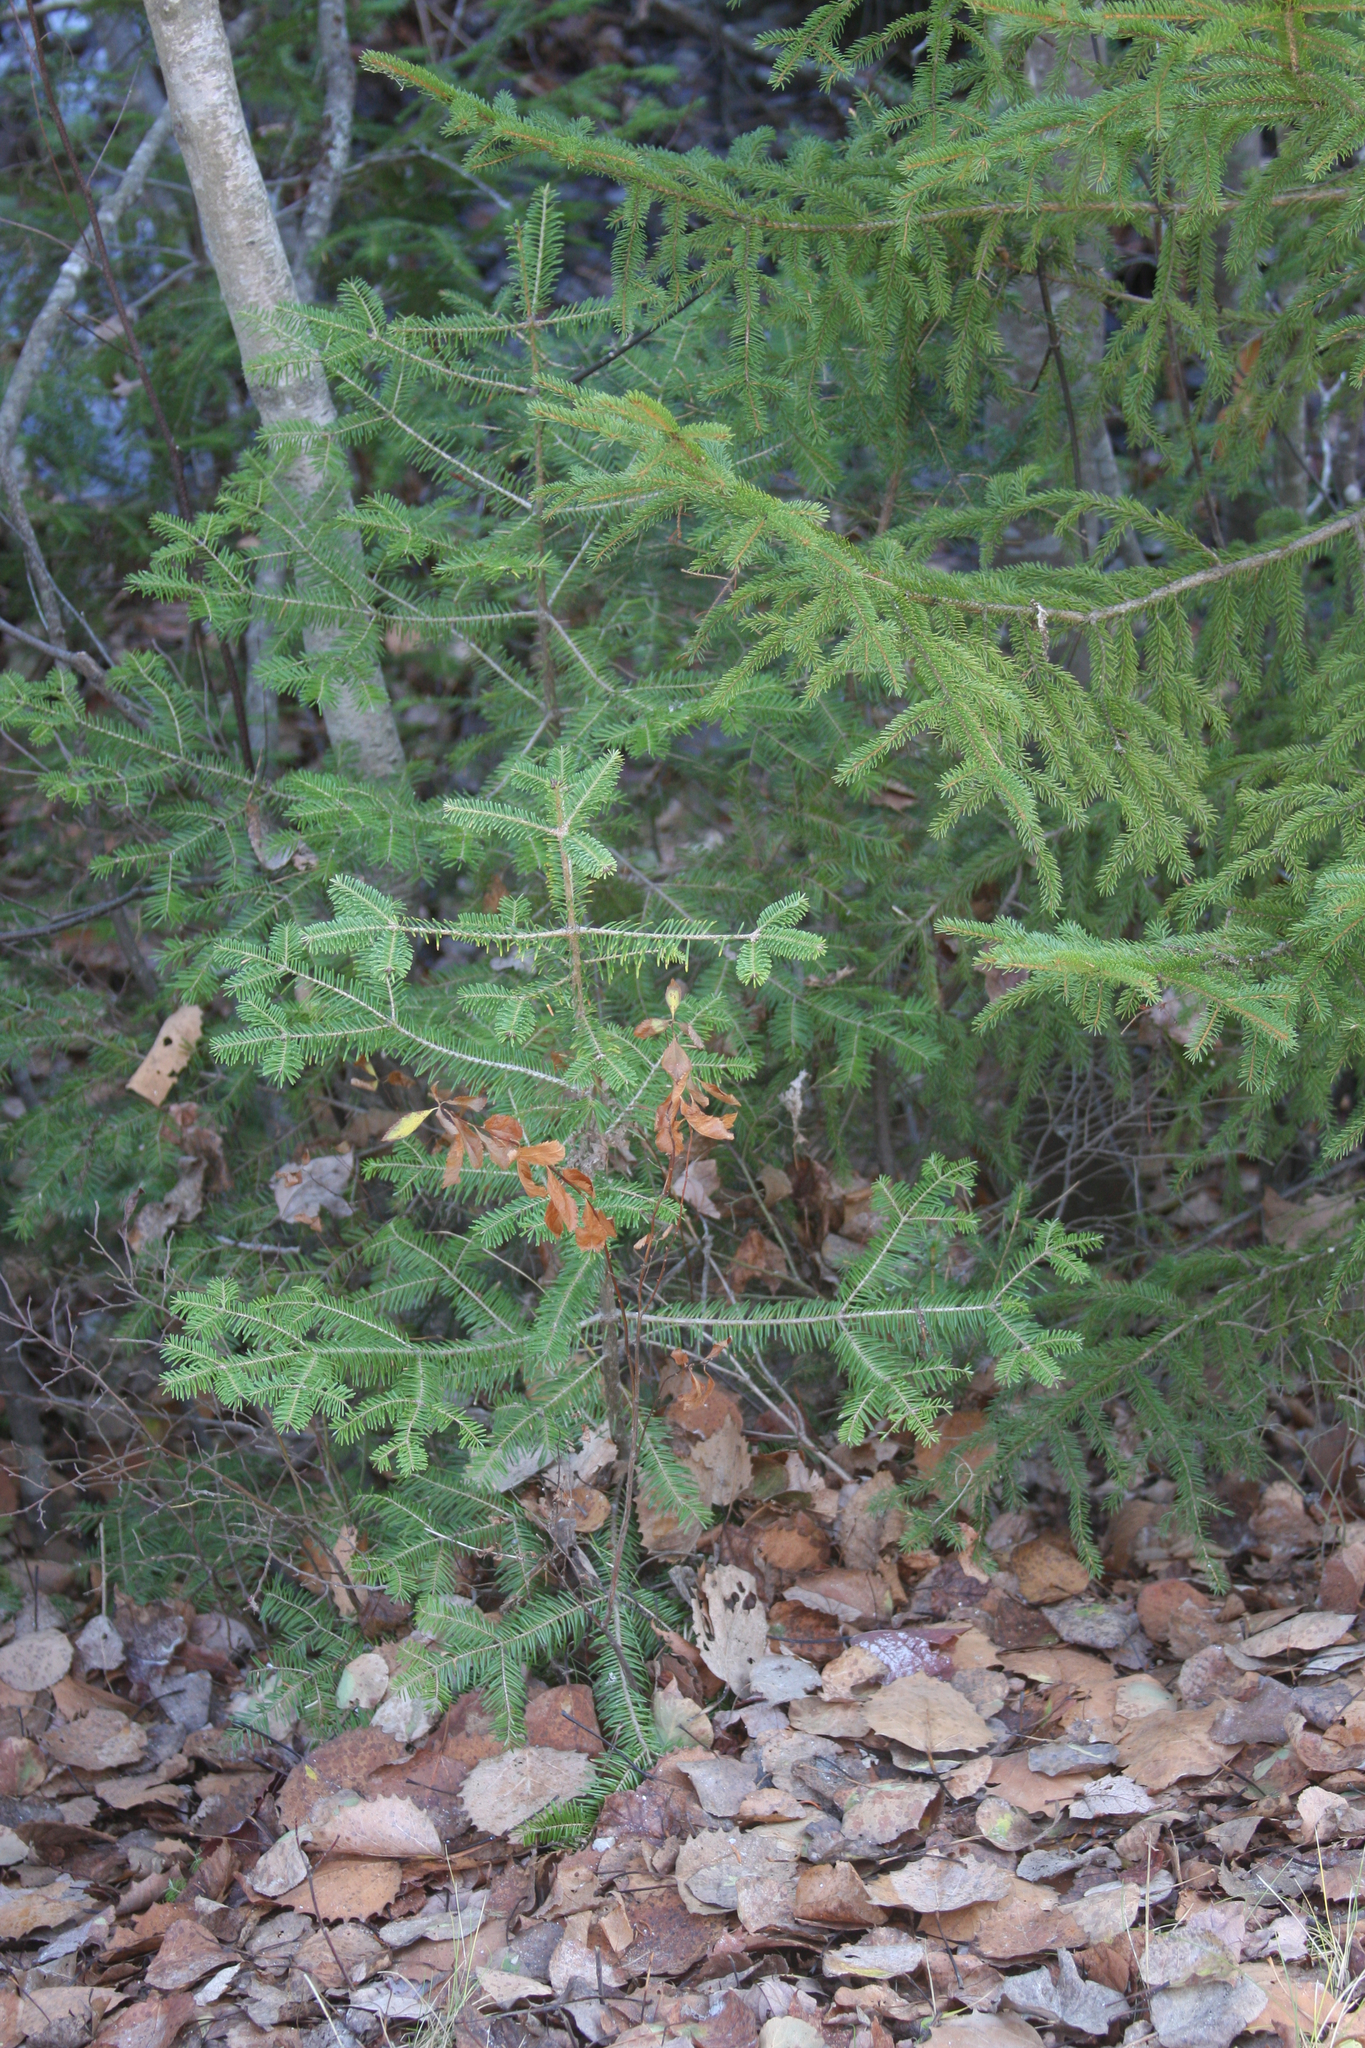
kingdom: Plantae
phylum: Tracheophyta
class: Pinopsida
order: Pinales
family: Pinaceae
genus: Abies
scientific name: Abies balsamea
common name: Balsam fir
